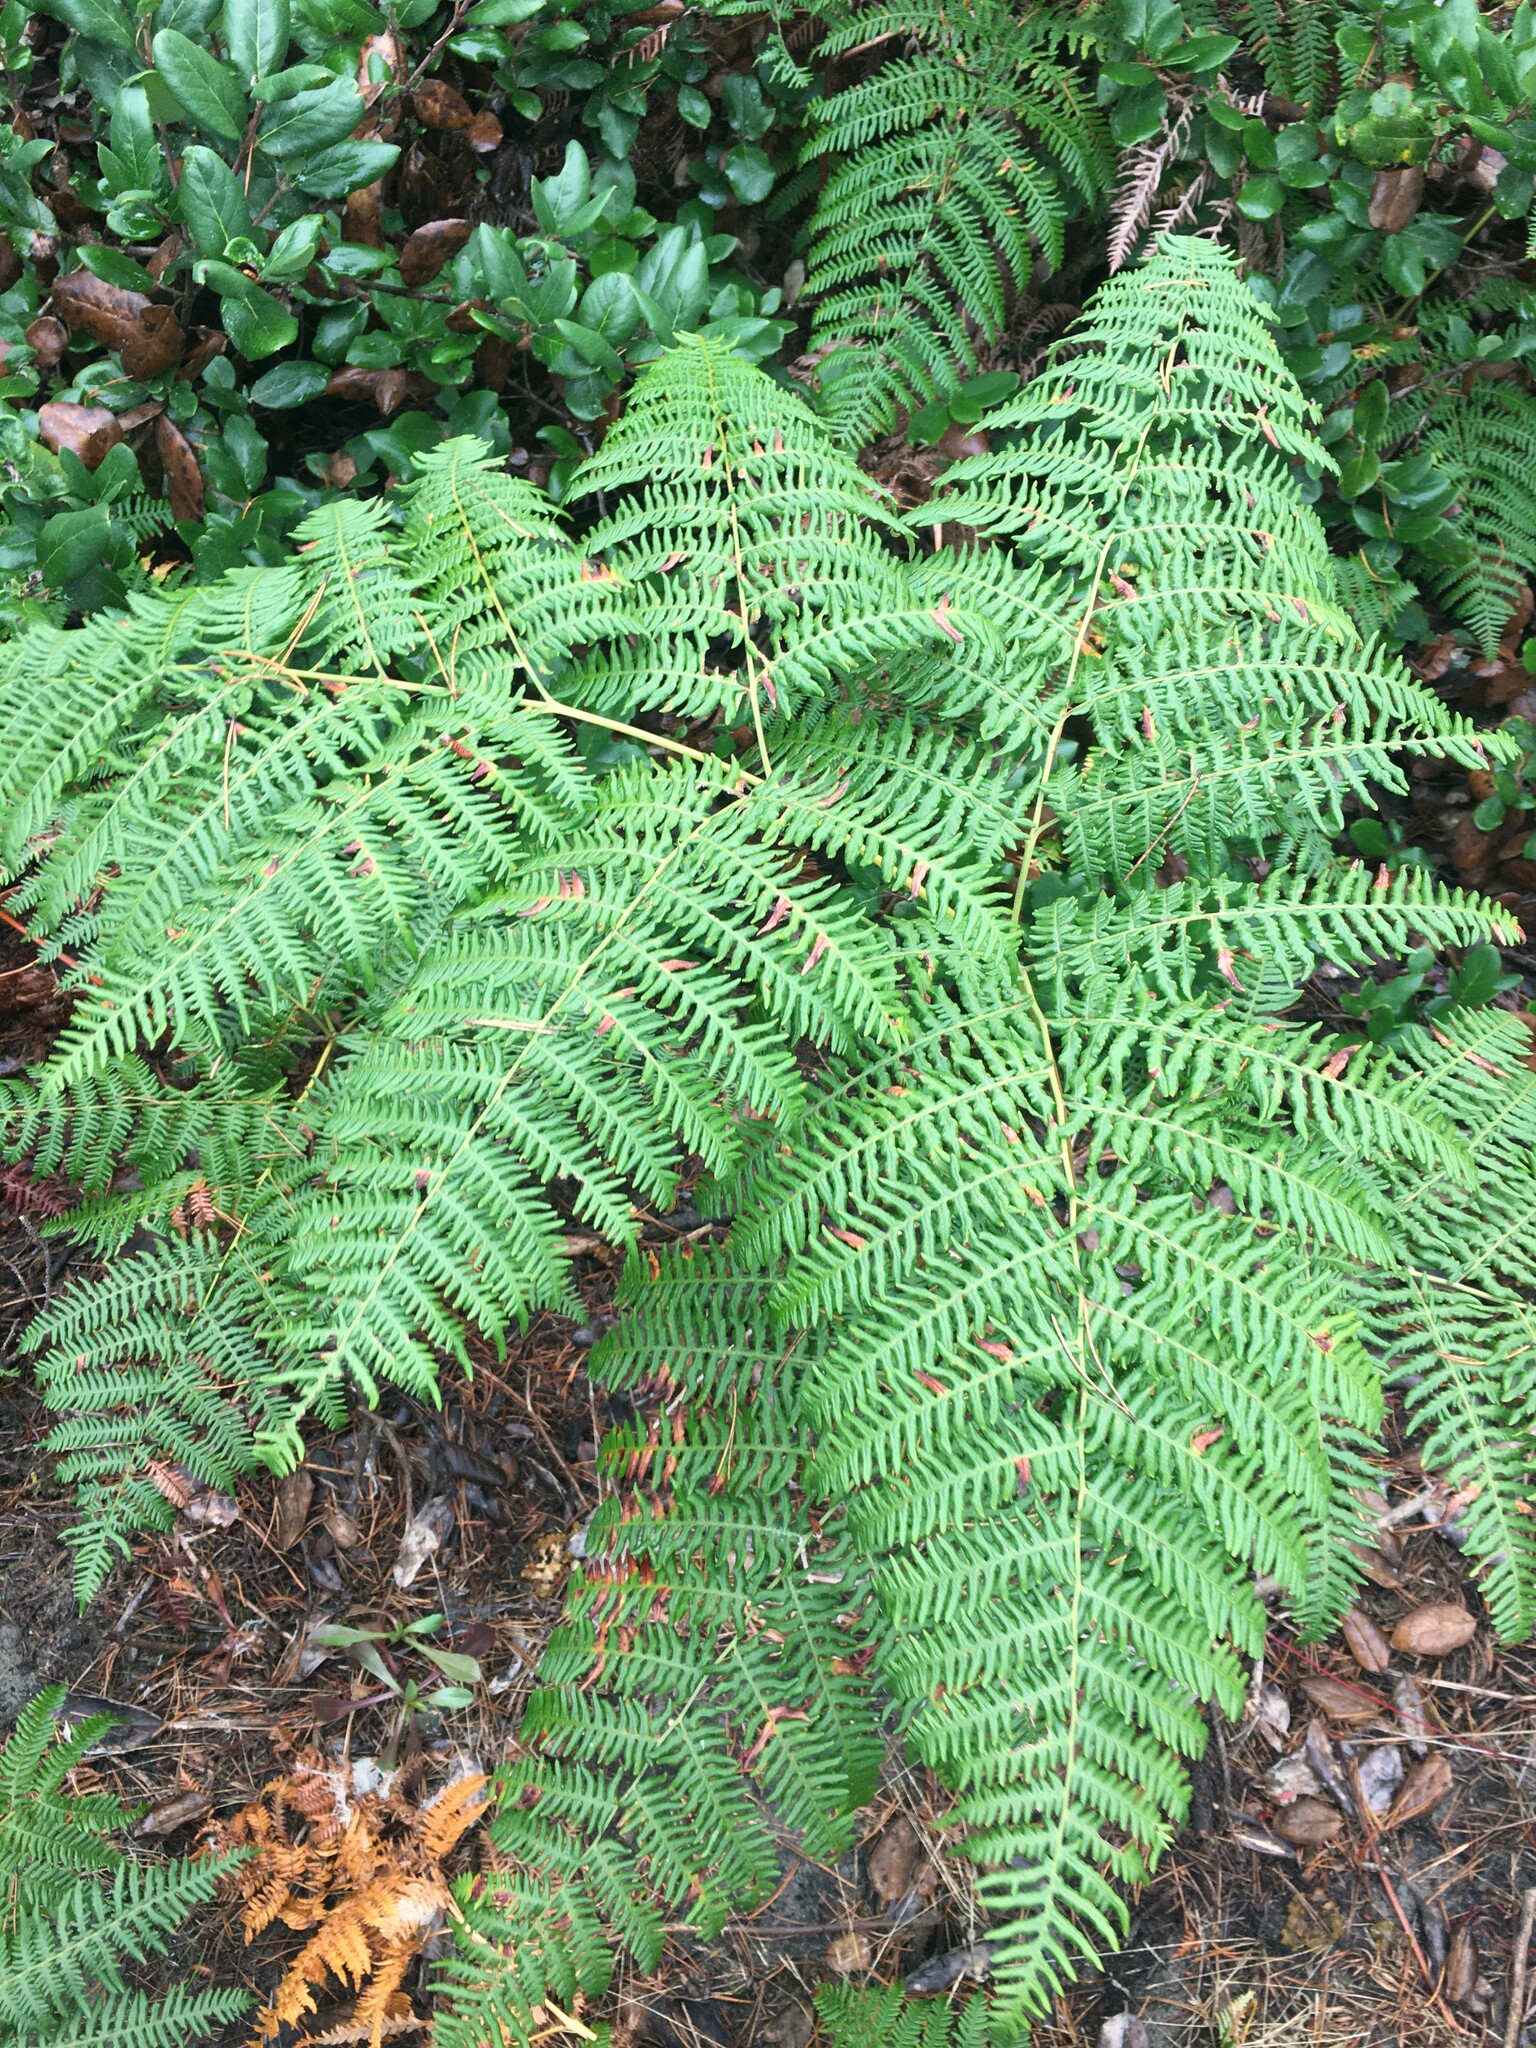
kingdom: Plantae
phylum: Tracheophyta
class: Polypodiopsida
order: Polypodiales
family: Blechnaceae
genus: Woodwardia
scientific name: Woodwardia fimbriata
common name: Giant chain fern
